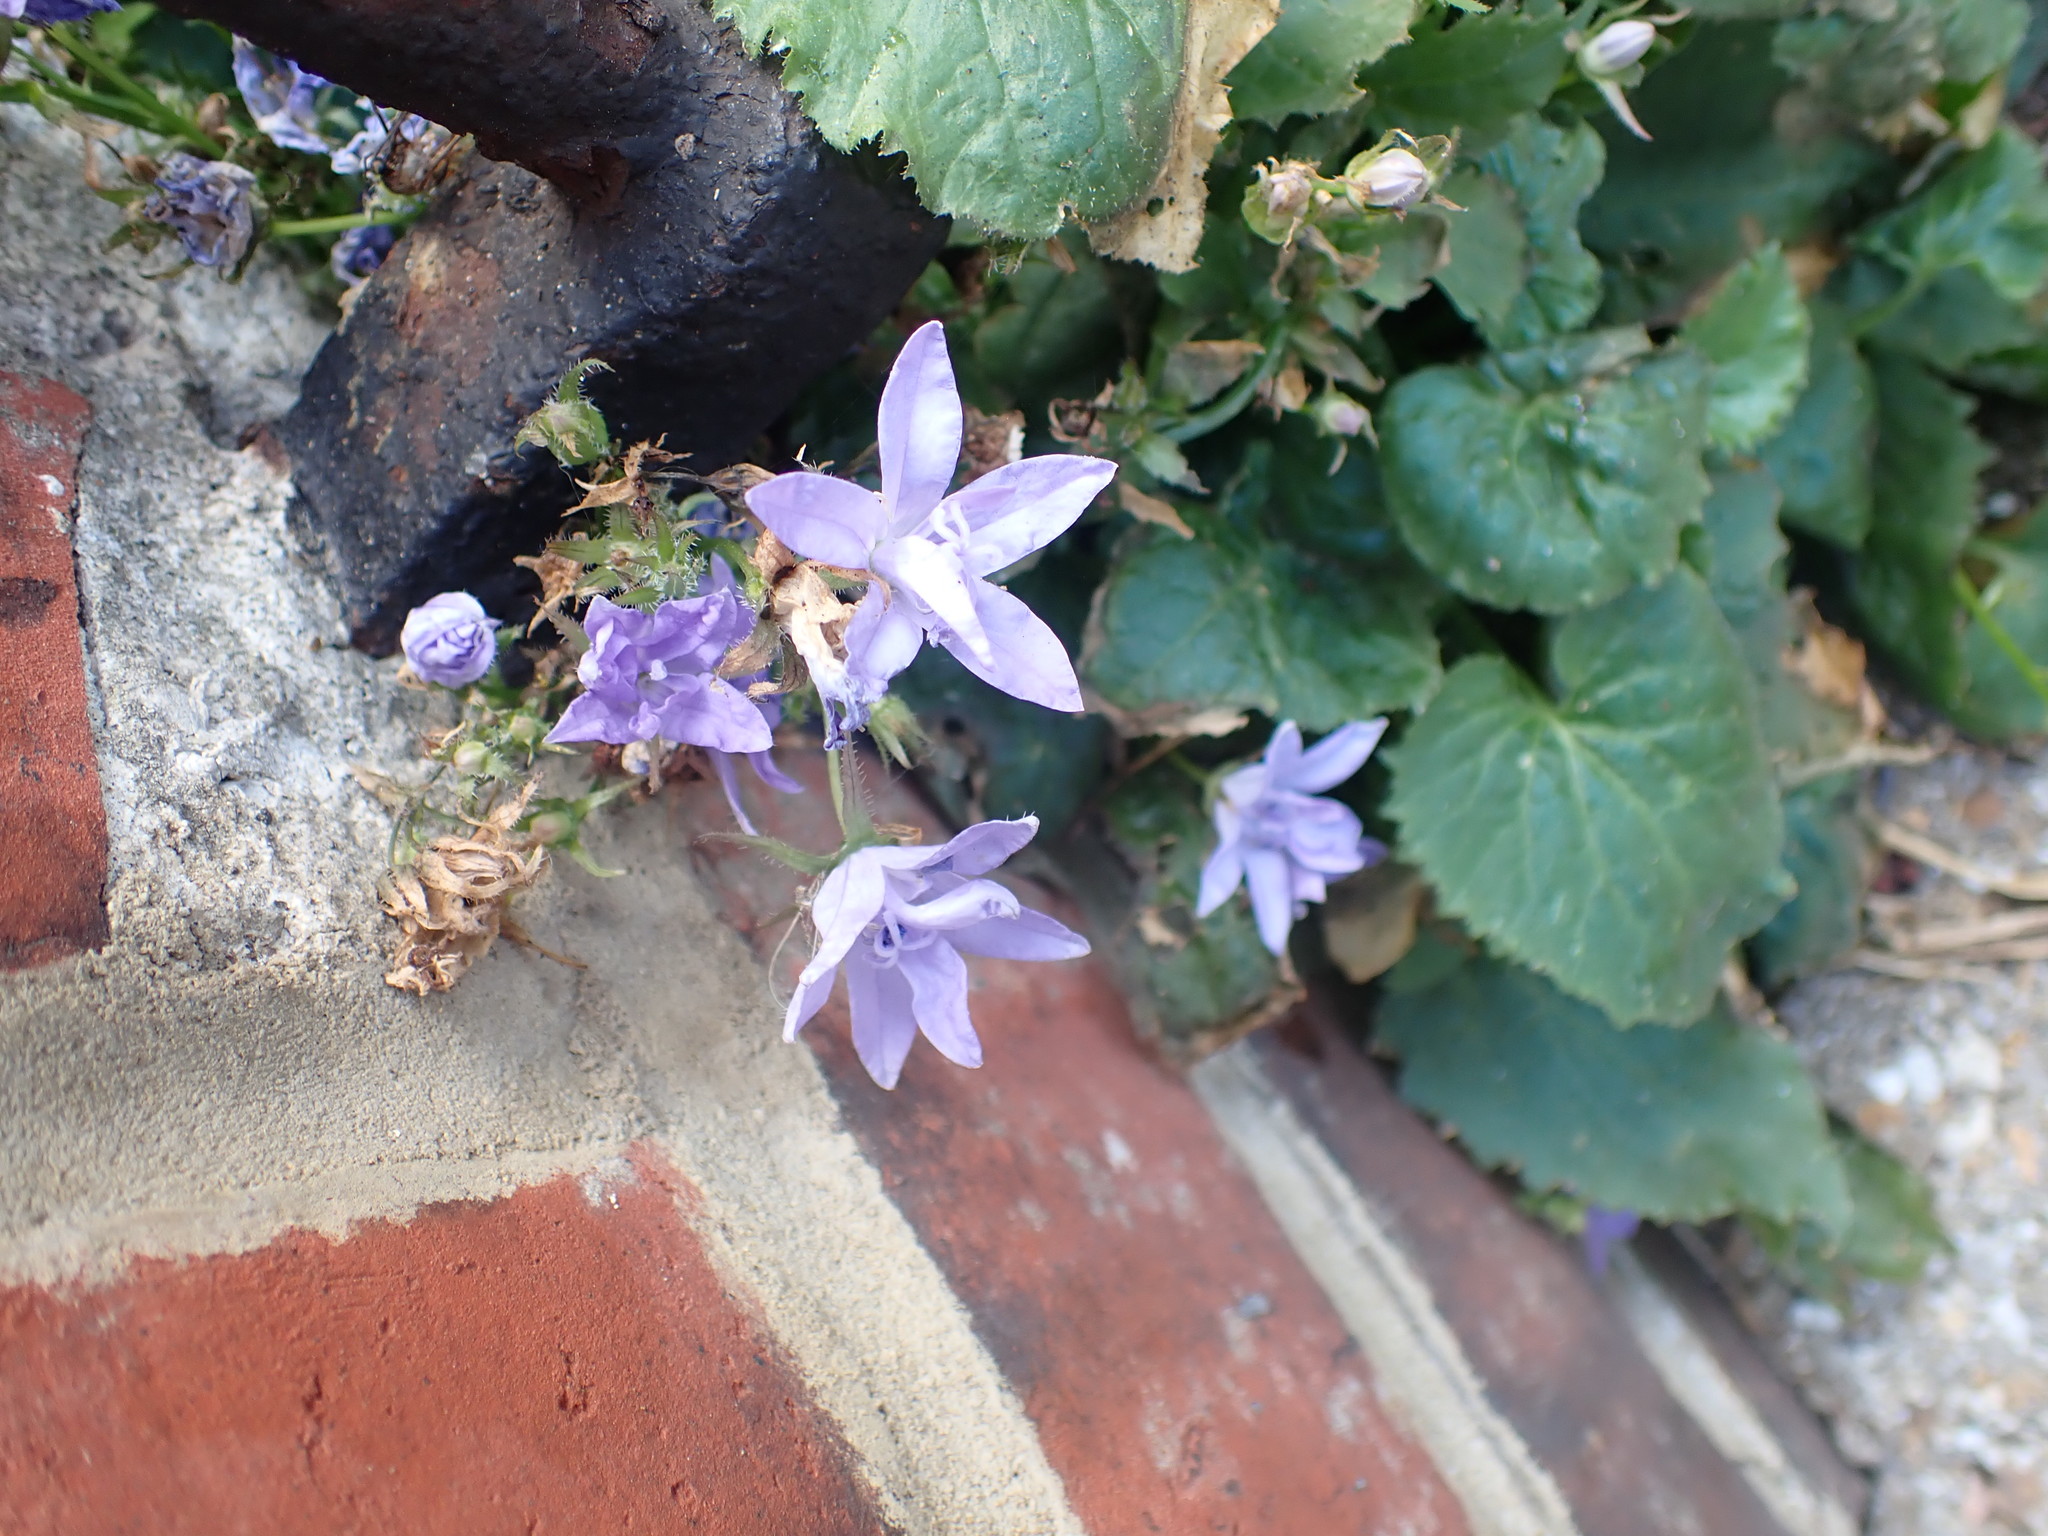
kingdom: Plantae
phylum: Tracheophyta
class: Magnoliopsida
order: Asterales
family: Campanulaceae
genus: Campanula
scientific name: Campanula poscharskyana
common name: Trailing bellflower
